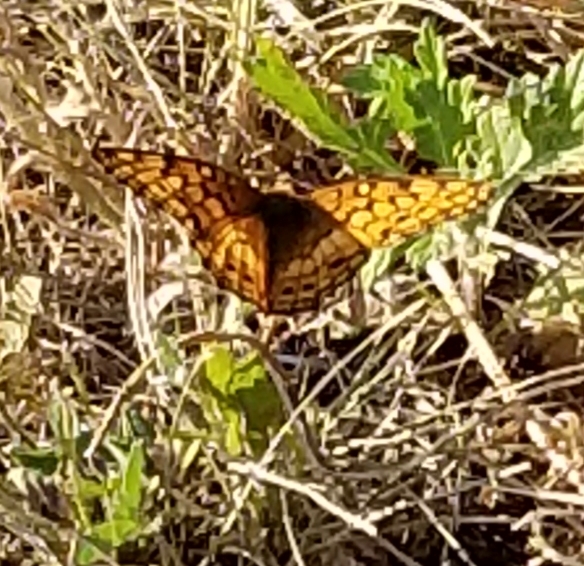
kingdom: Animalia
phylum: Arthropoda
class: Insecta
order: Lepidoptera
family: Nymphalidae
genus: Euptoieta
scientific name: Euptoieta claudia
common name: Variegated fritillary
